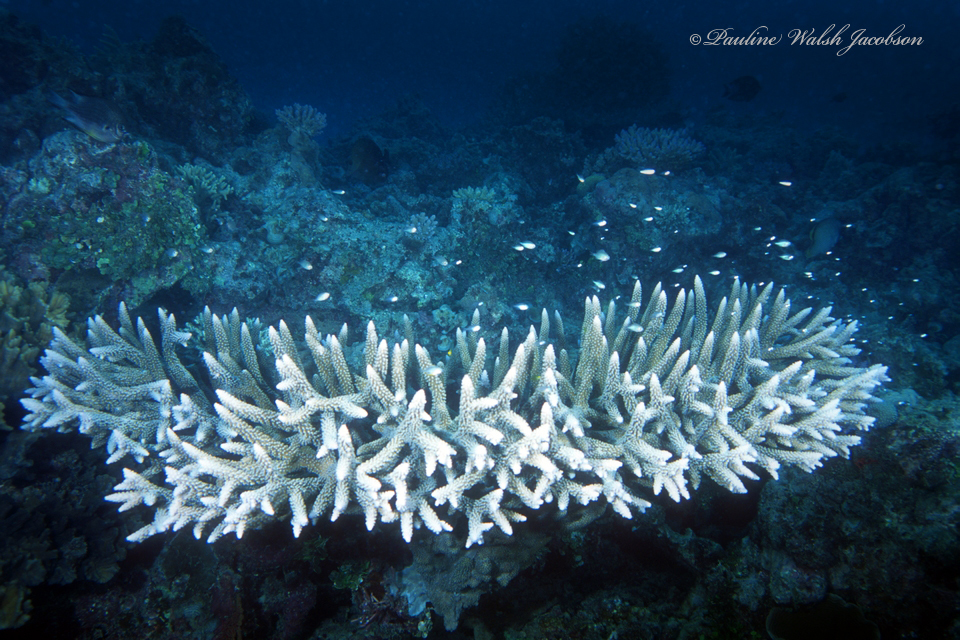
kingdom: Animalia
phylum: Cnidaria
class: Anthozoa
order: Scleractinia
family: Acroporidae
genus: Acropora
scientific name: Acropora valenciennesi
